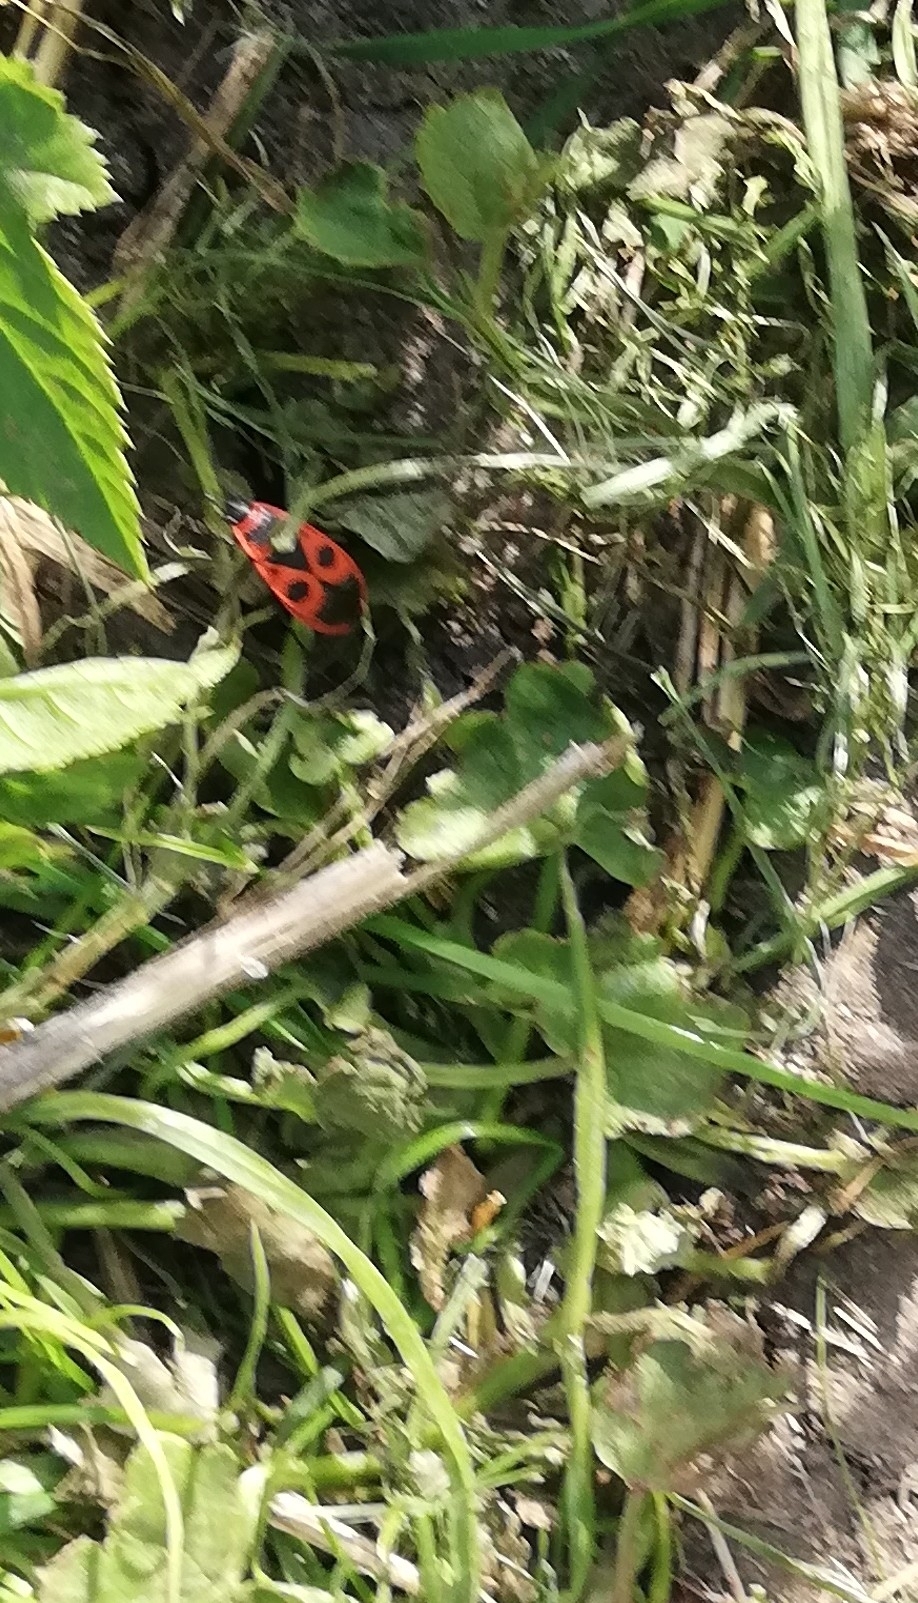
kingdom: Animalia
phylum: Arthropoda
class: Insecta
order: Hemiptera
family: Pyrrhocoridae
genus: Pyrrhocoris
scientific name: Pyrrhocoris apterus
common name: Firebug
